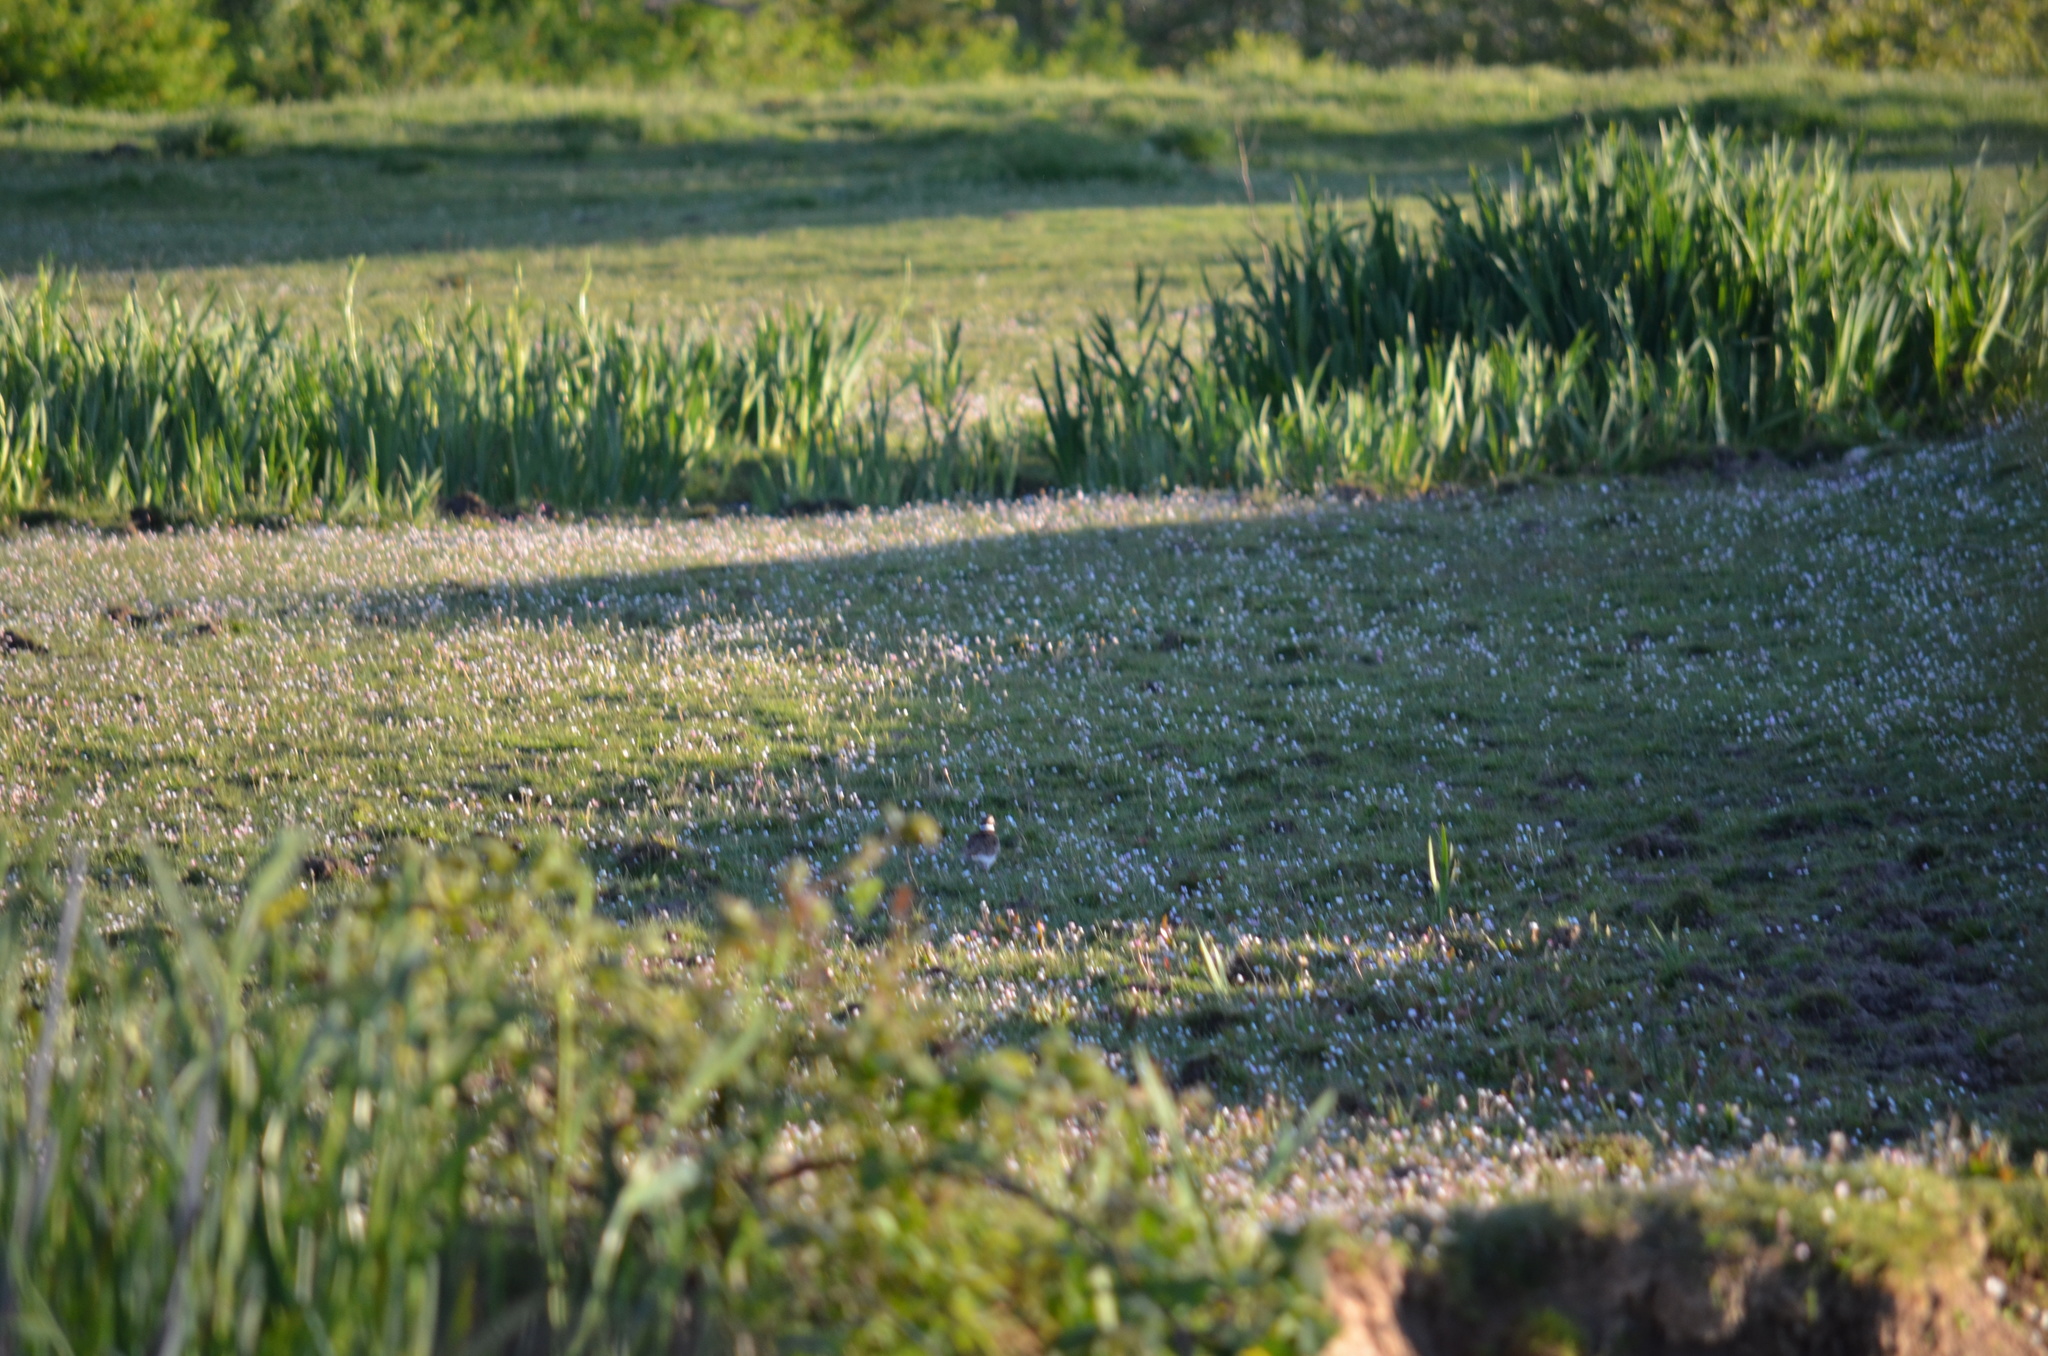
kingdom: Animalia
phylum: Chordata
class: Aves
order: Charadriiformes
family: Charadriidae
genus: Charadrius
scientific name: Charadrius vociferus
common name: Killdeer
